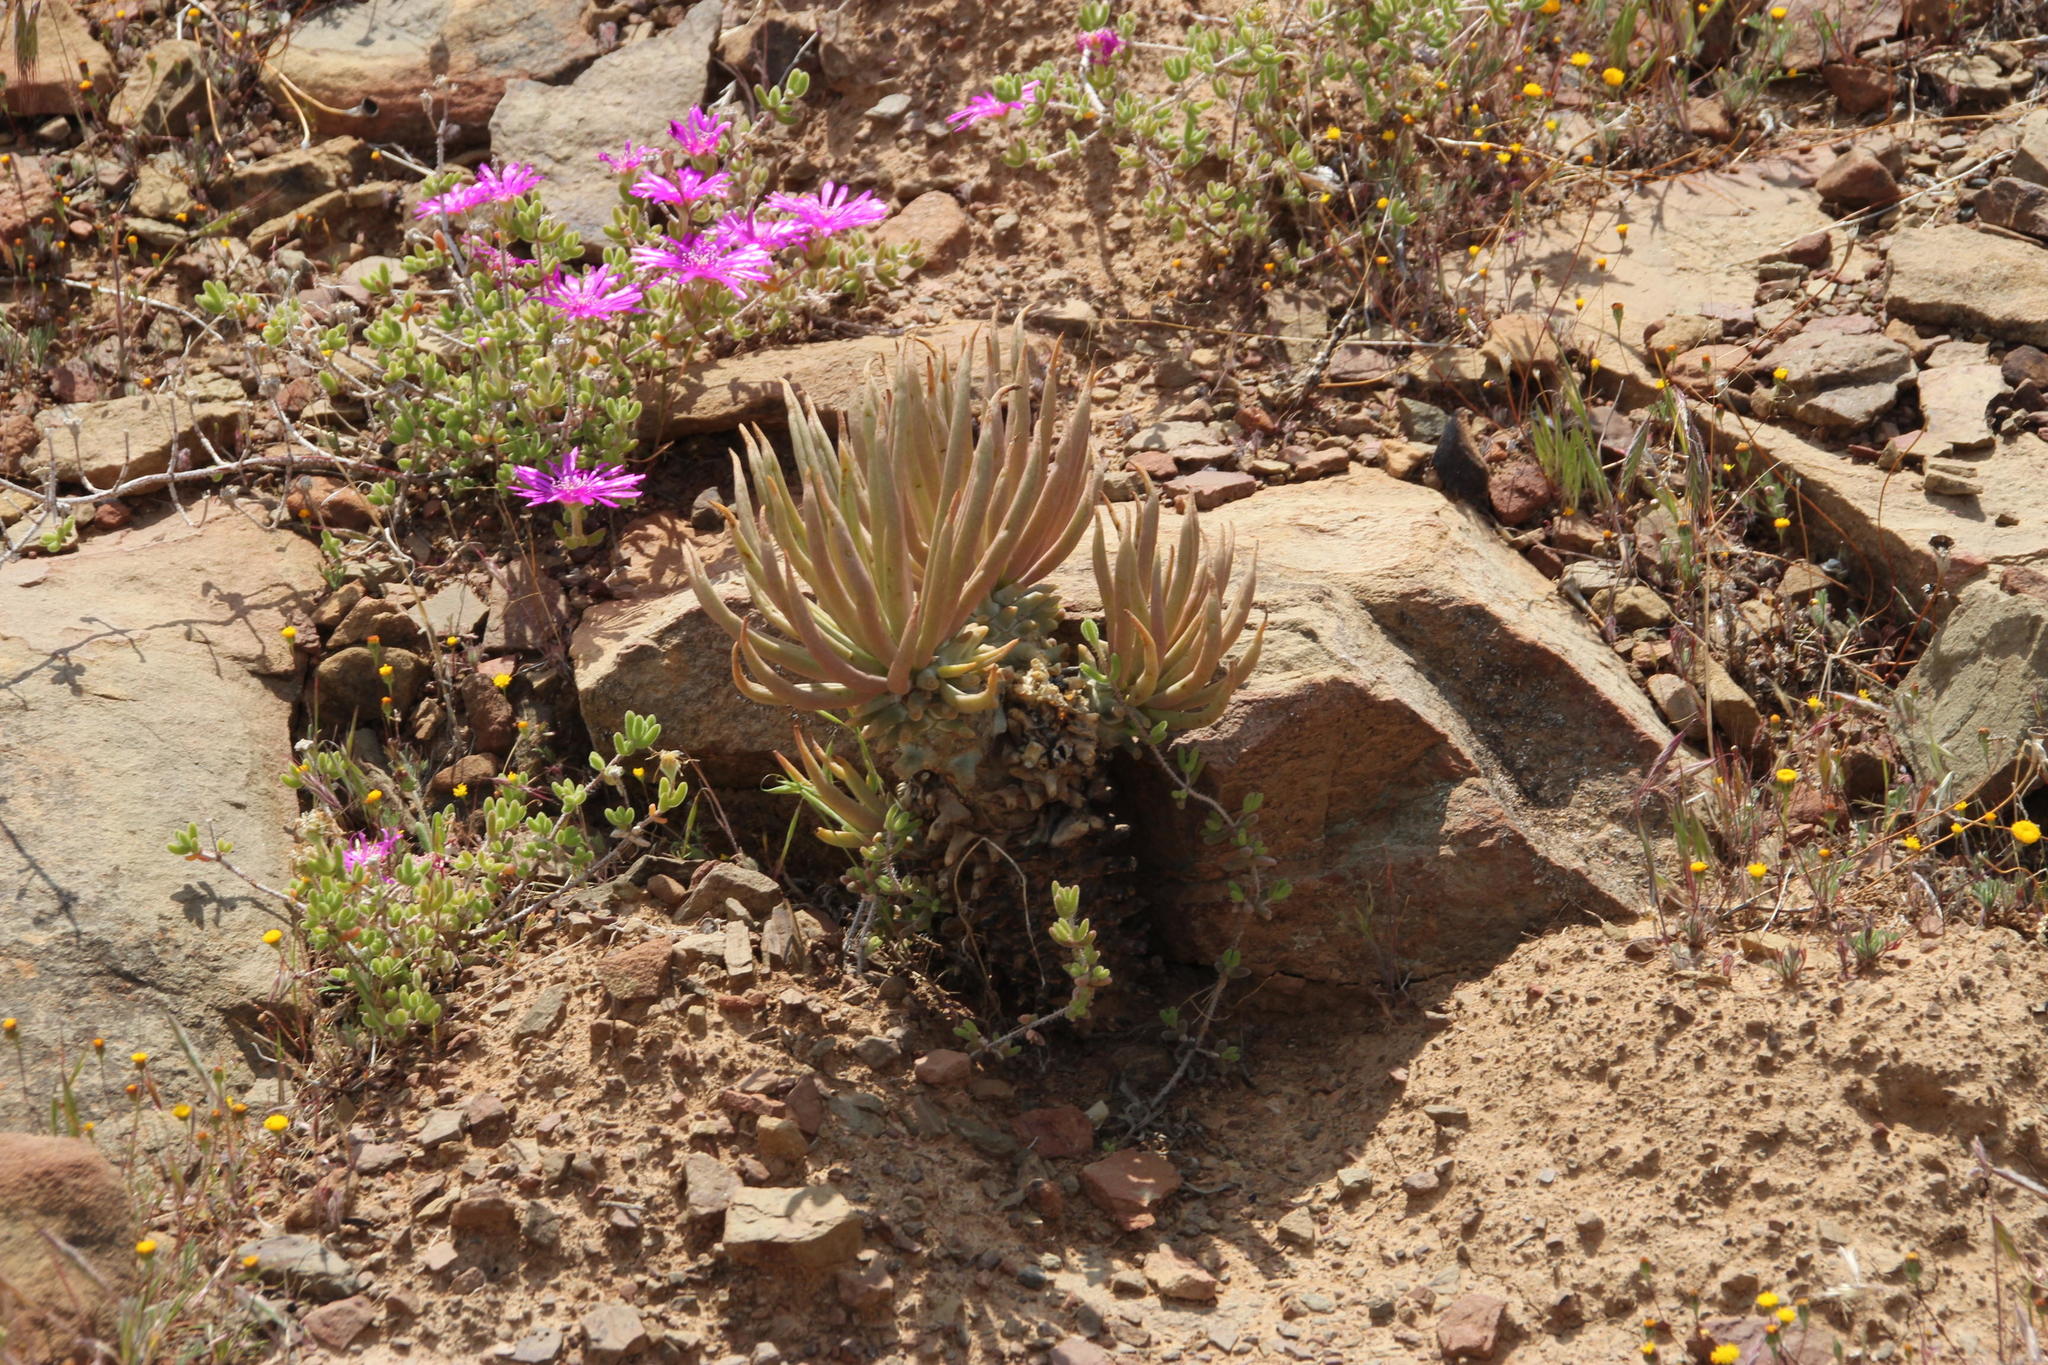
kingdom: Plantae
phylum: Tracheophyta
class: Magnoliopsida
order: Saxifragales
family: Crassulaceae
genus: Tylecodon
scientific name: Tylecodon wallichii
